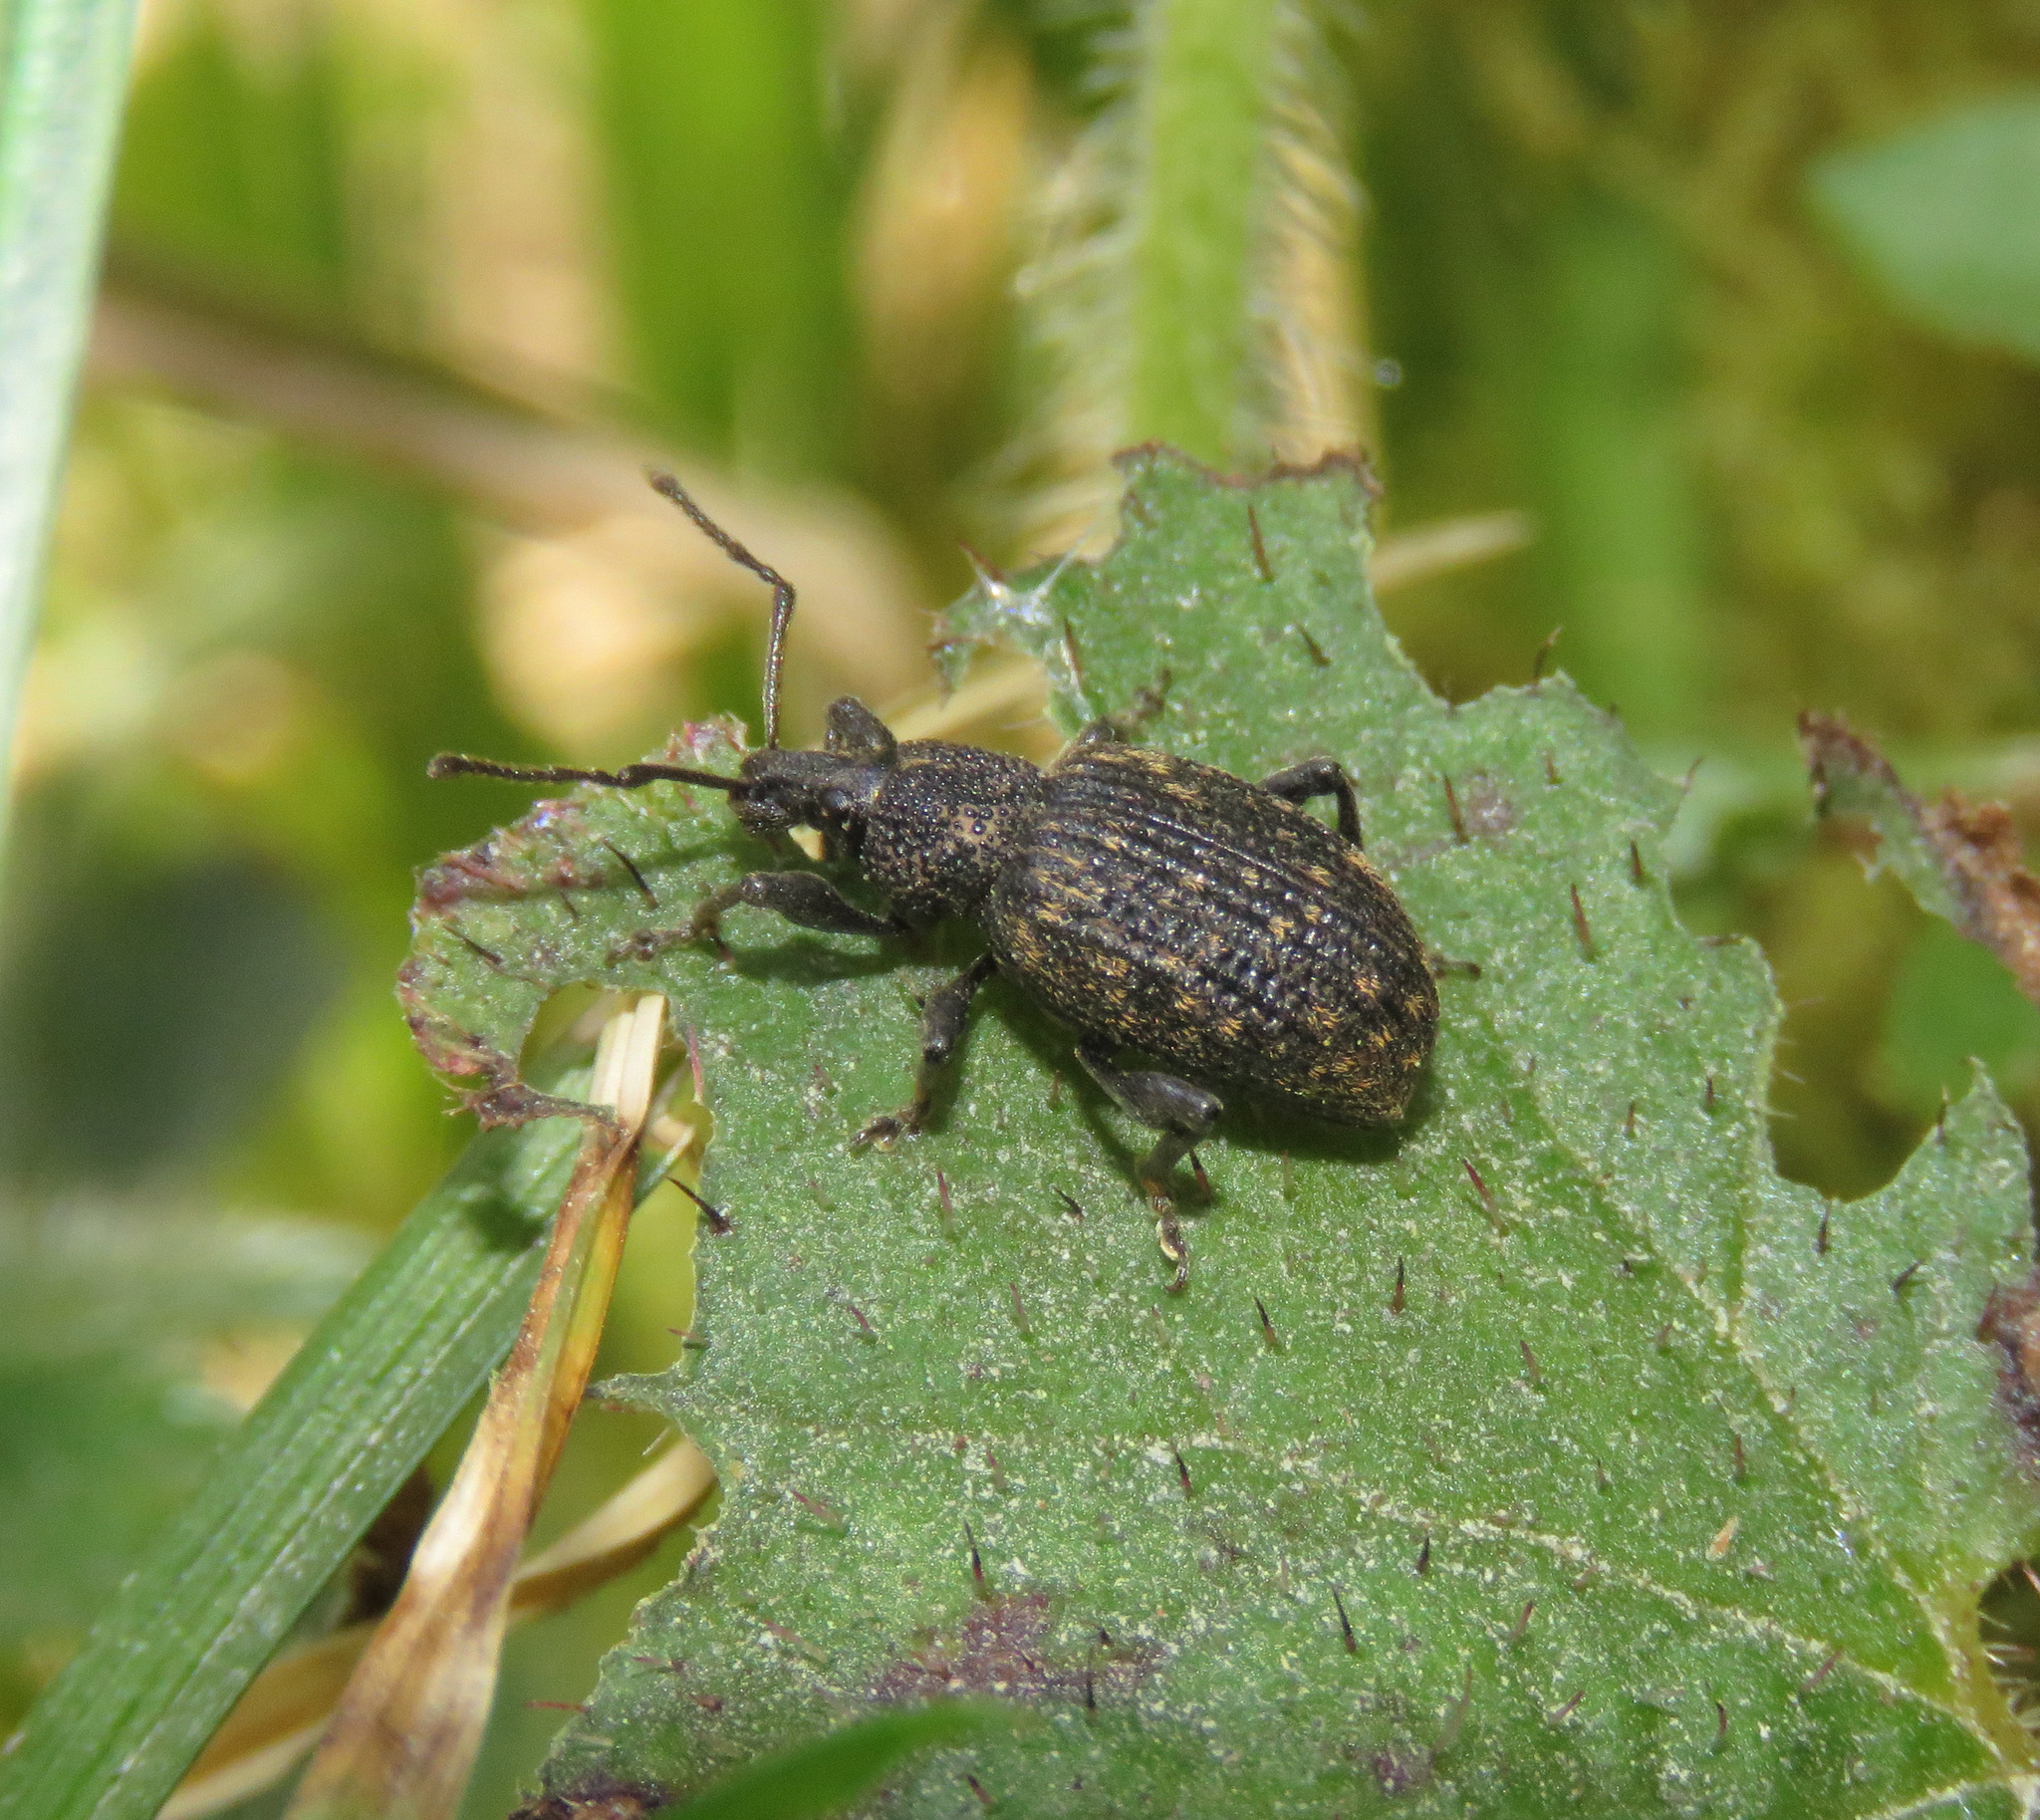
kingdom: Animalia
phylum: Arthropoda
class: Insecta
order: Coleoptera
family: Curculionidae
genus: Otiorhynchus
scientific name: Otiorhynchus sulcatus
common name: Black vine weevil
